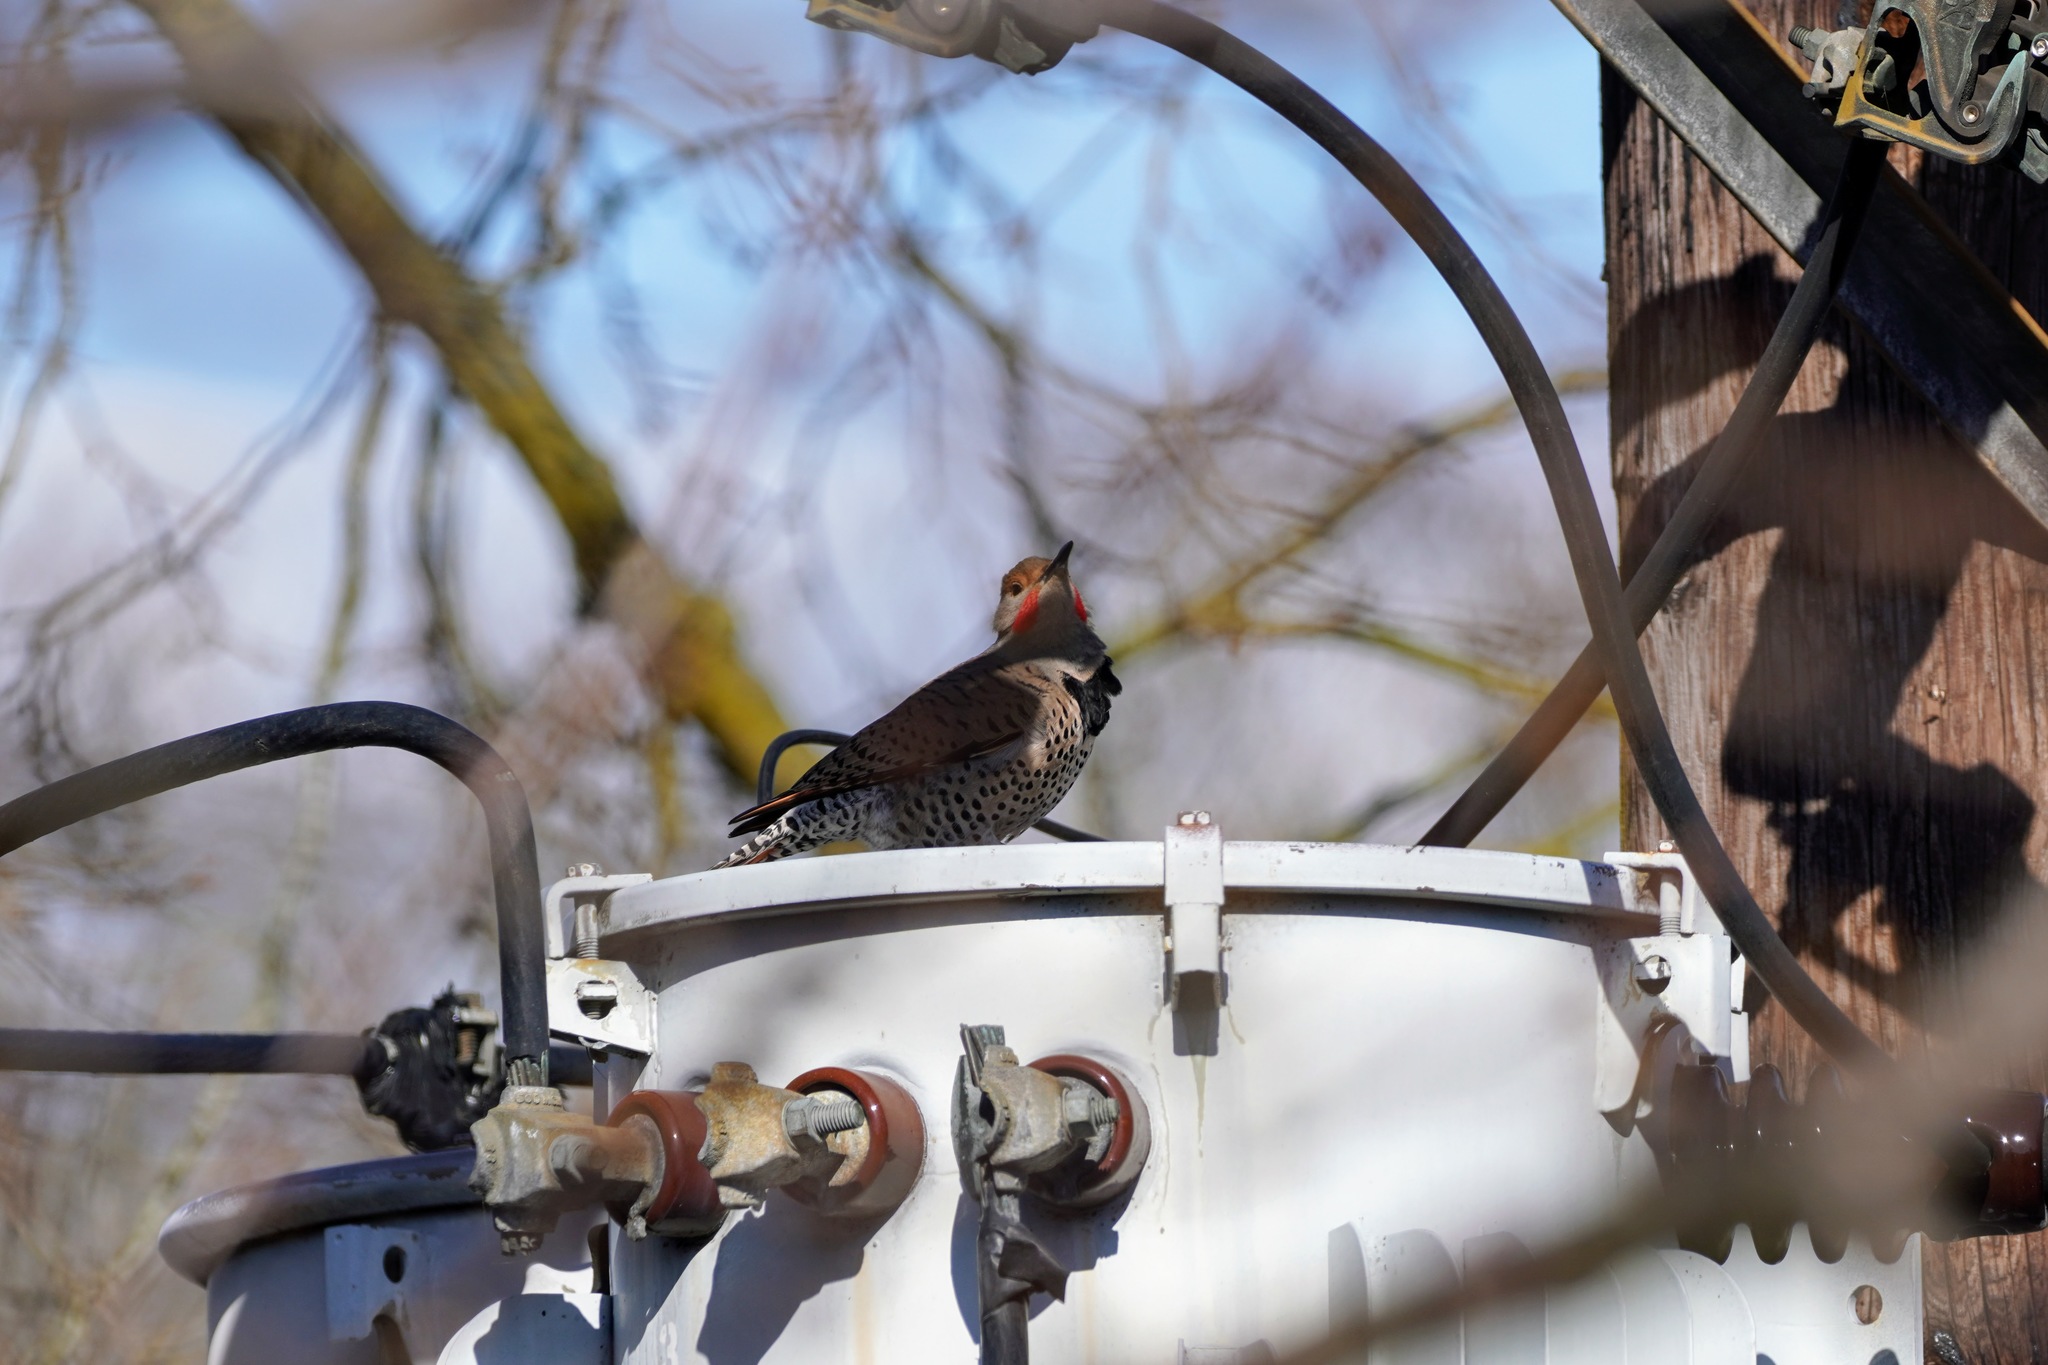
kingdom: Animalia
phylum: Chordata
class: Aves
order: Piciformes
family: Picidae
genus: Colaptes
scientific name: Colaptes auratus
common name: Northern flicker
